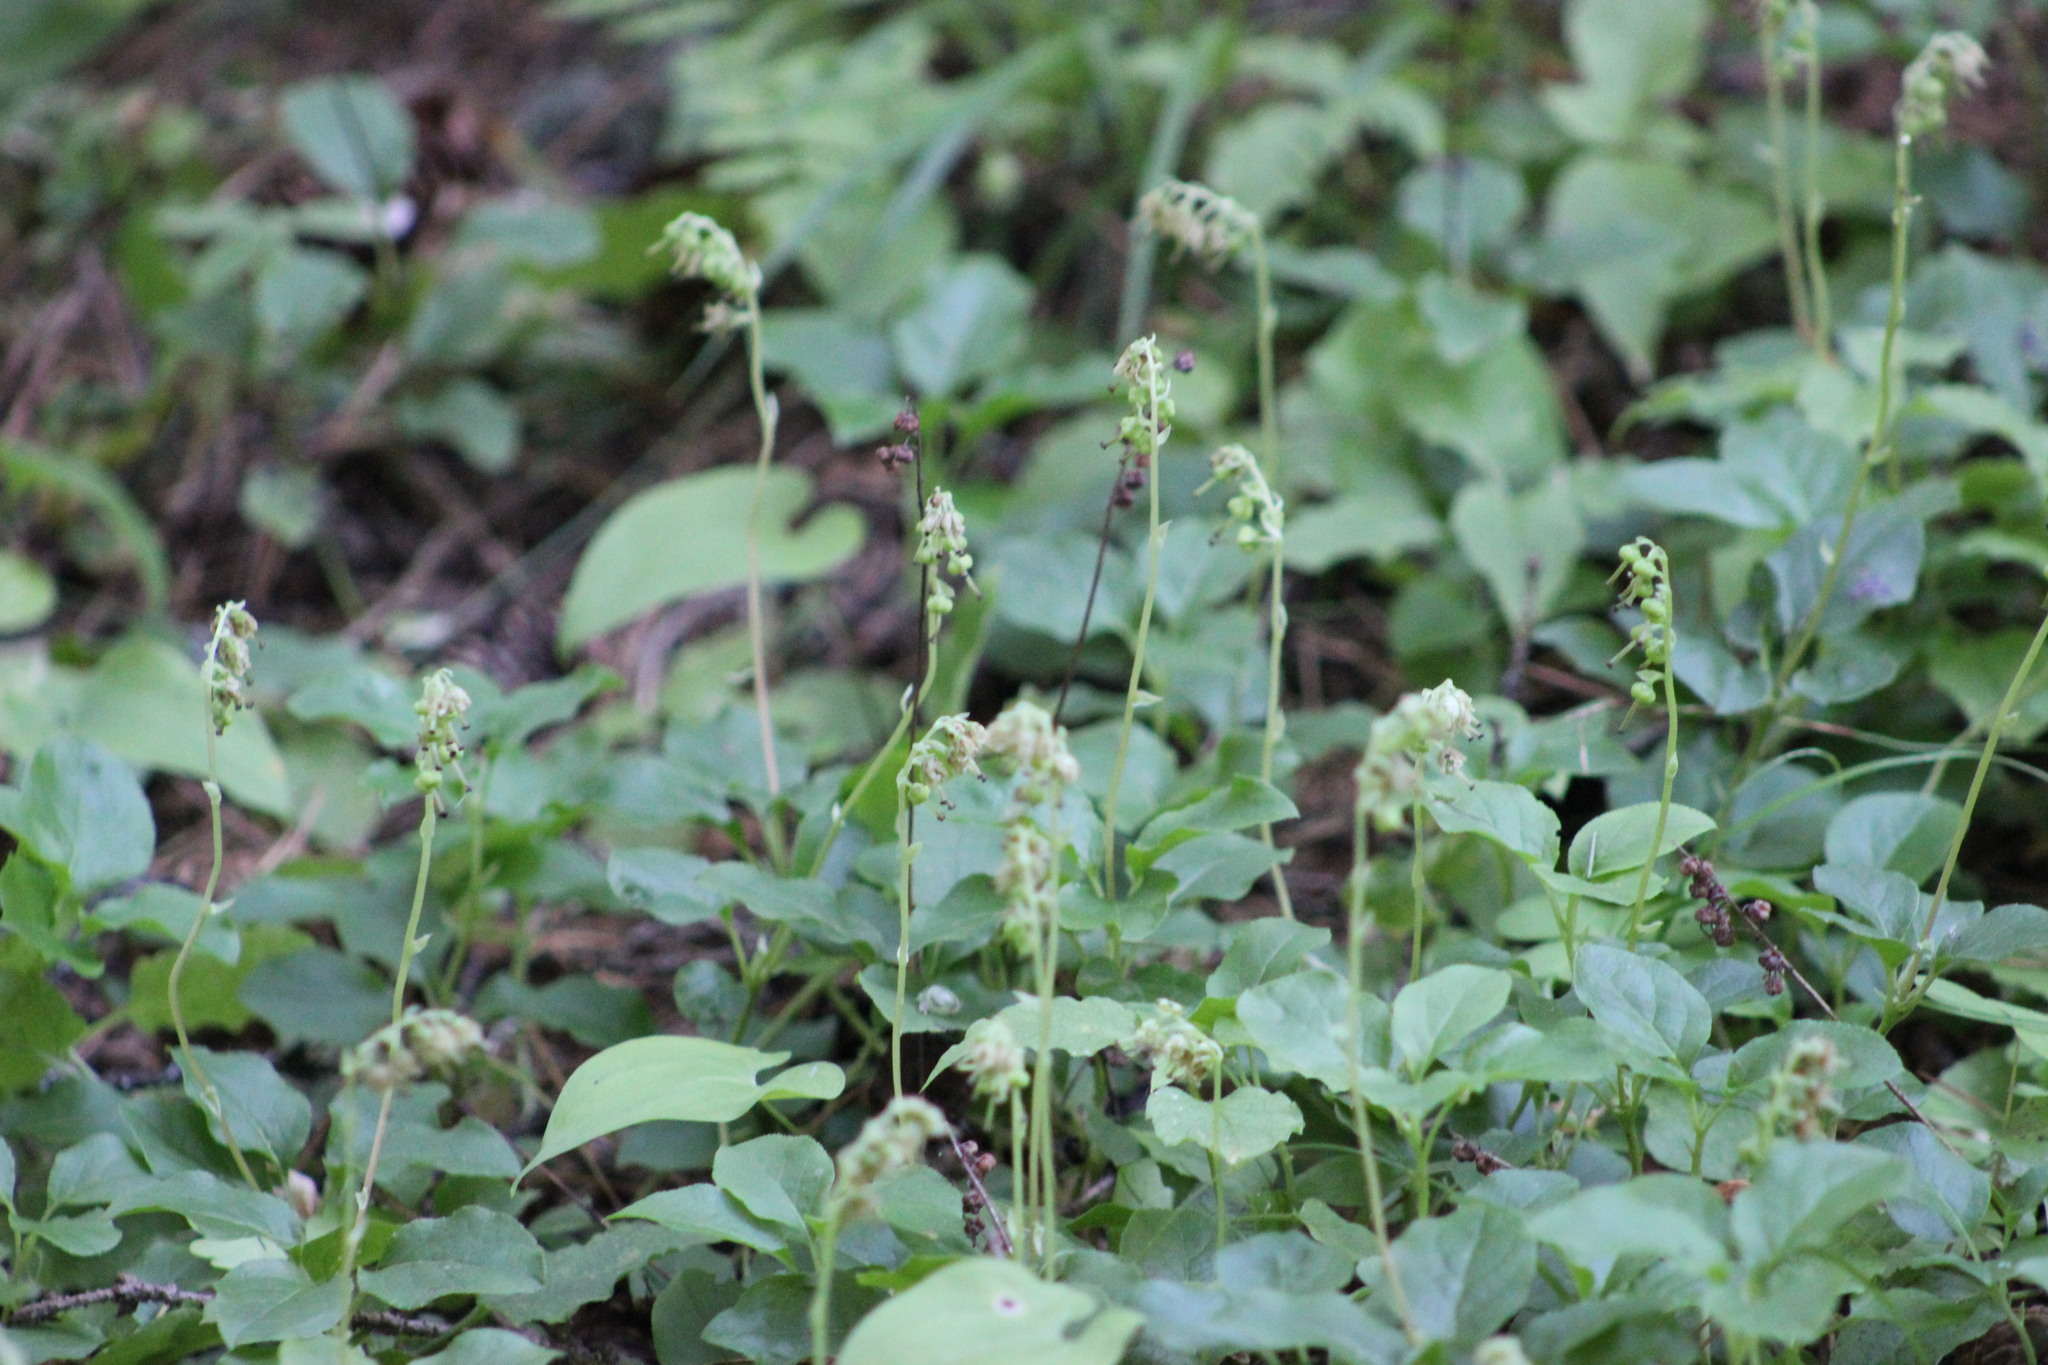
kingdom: Plantae
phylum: Tracheophyta
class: Magnoliopsida
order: Ericales
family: Ericaceae
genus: Orthilia
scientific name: Orthilia secunda
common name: One-sided orthilia
